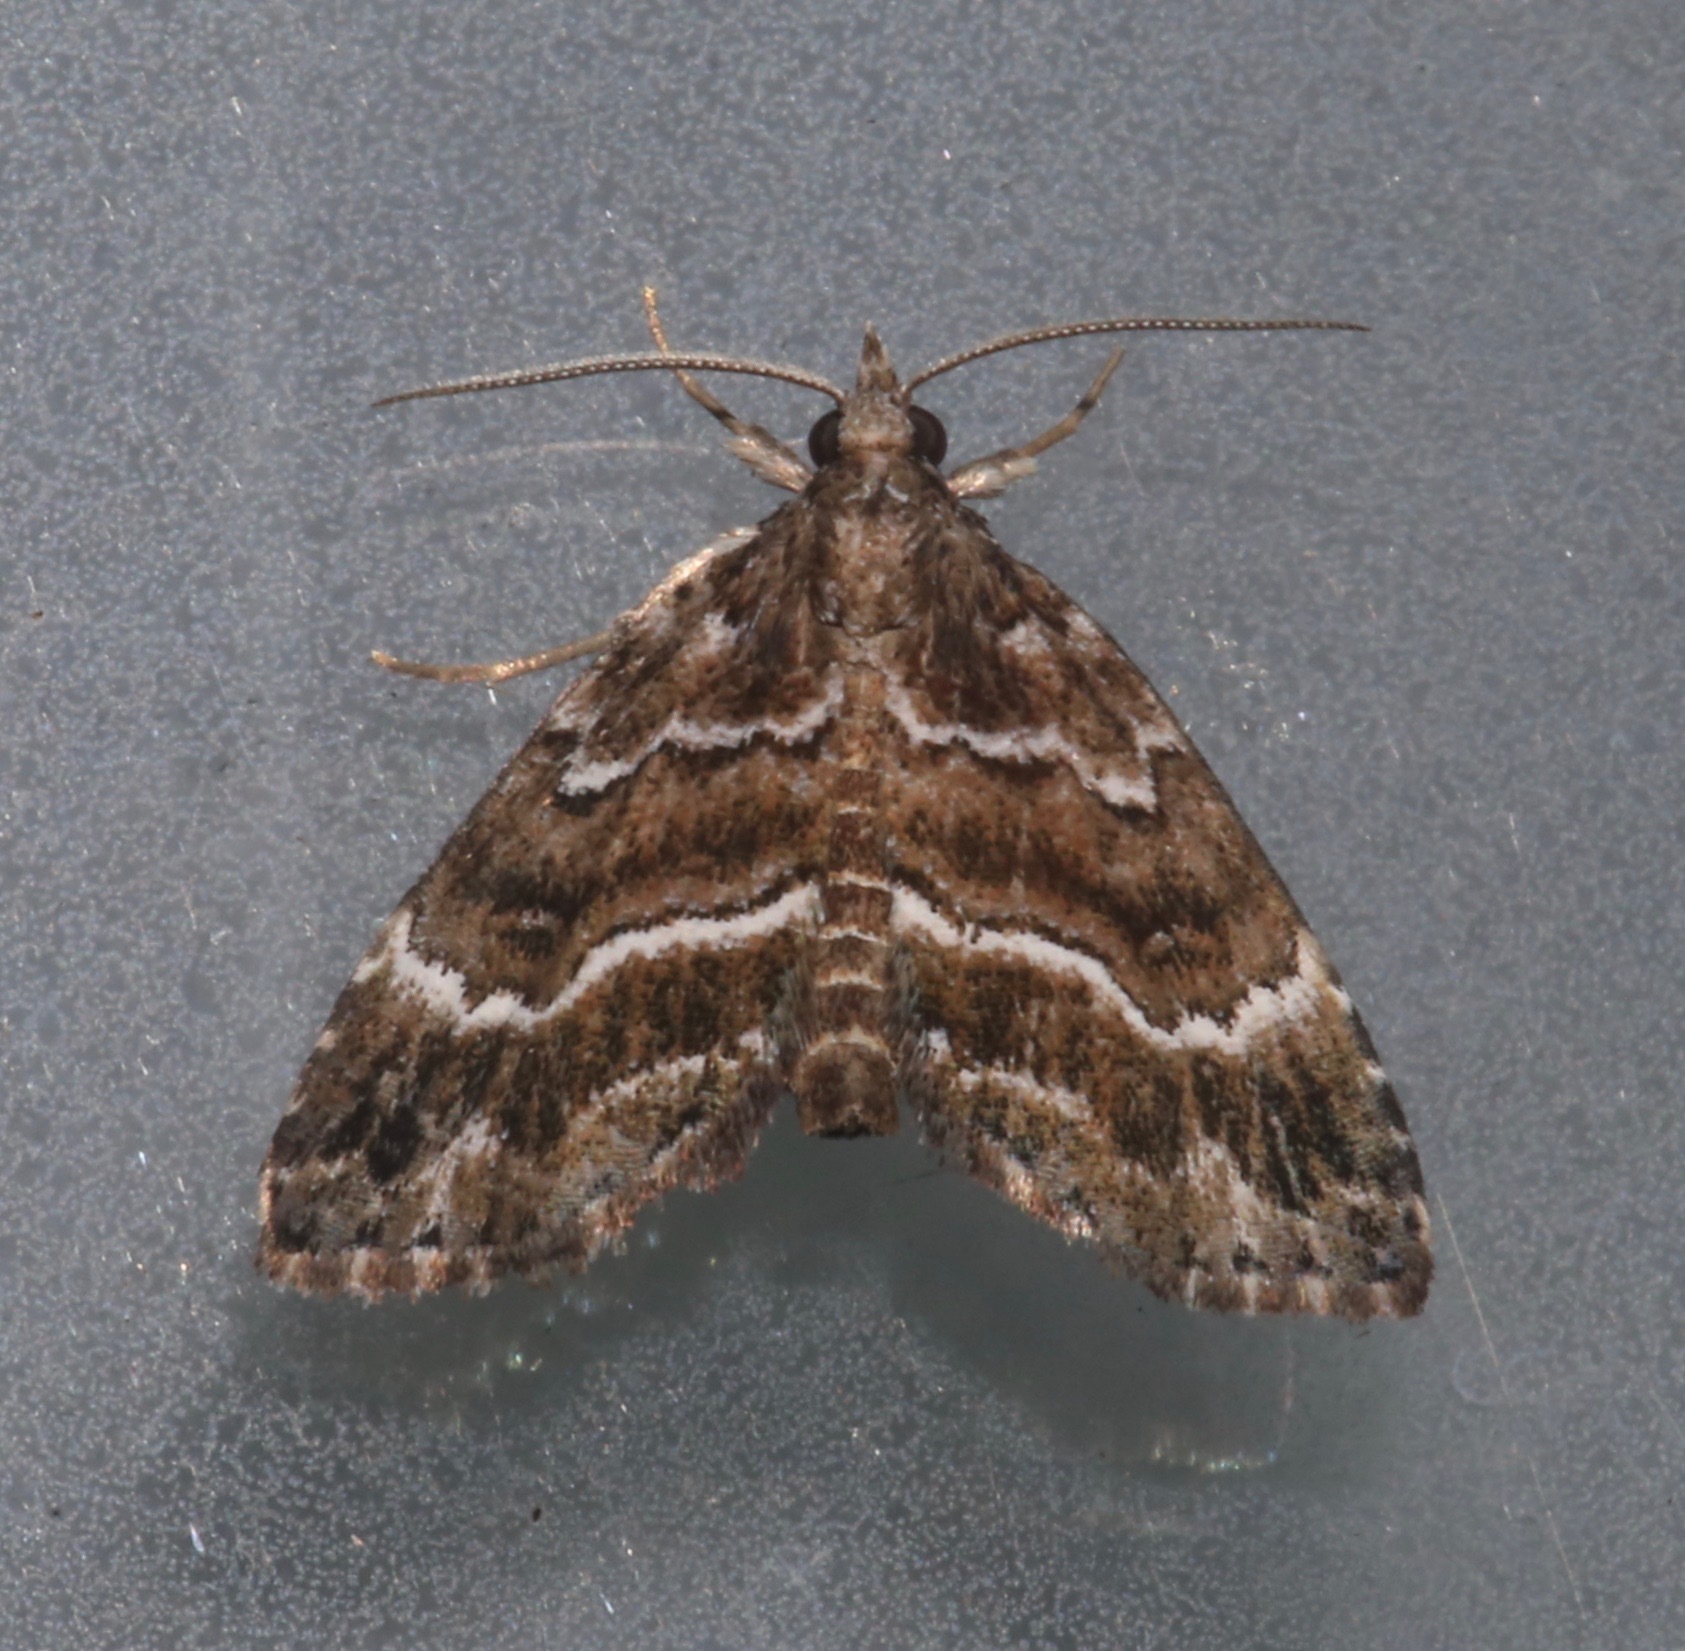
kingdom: Animalia
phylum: Arthropoda
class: Insecta
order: Lepidoptera
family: Erebidae
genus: Cutina
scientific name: Cutina arcuata
